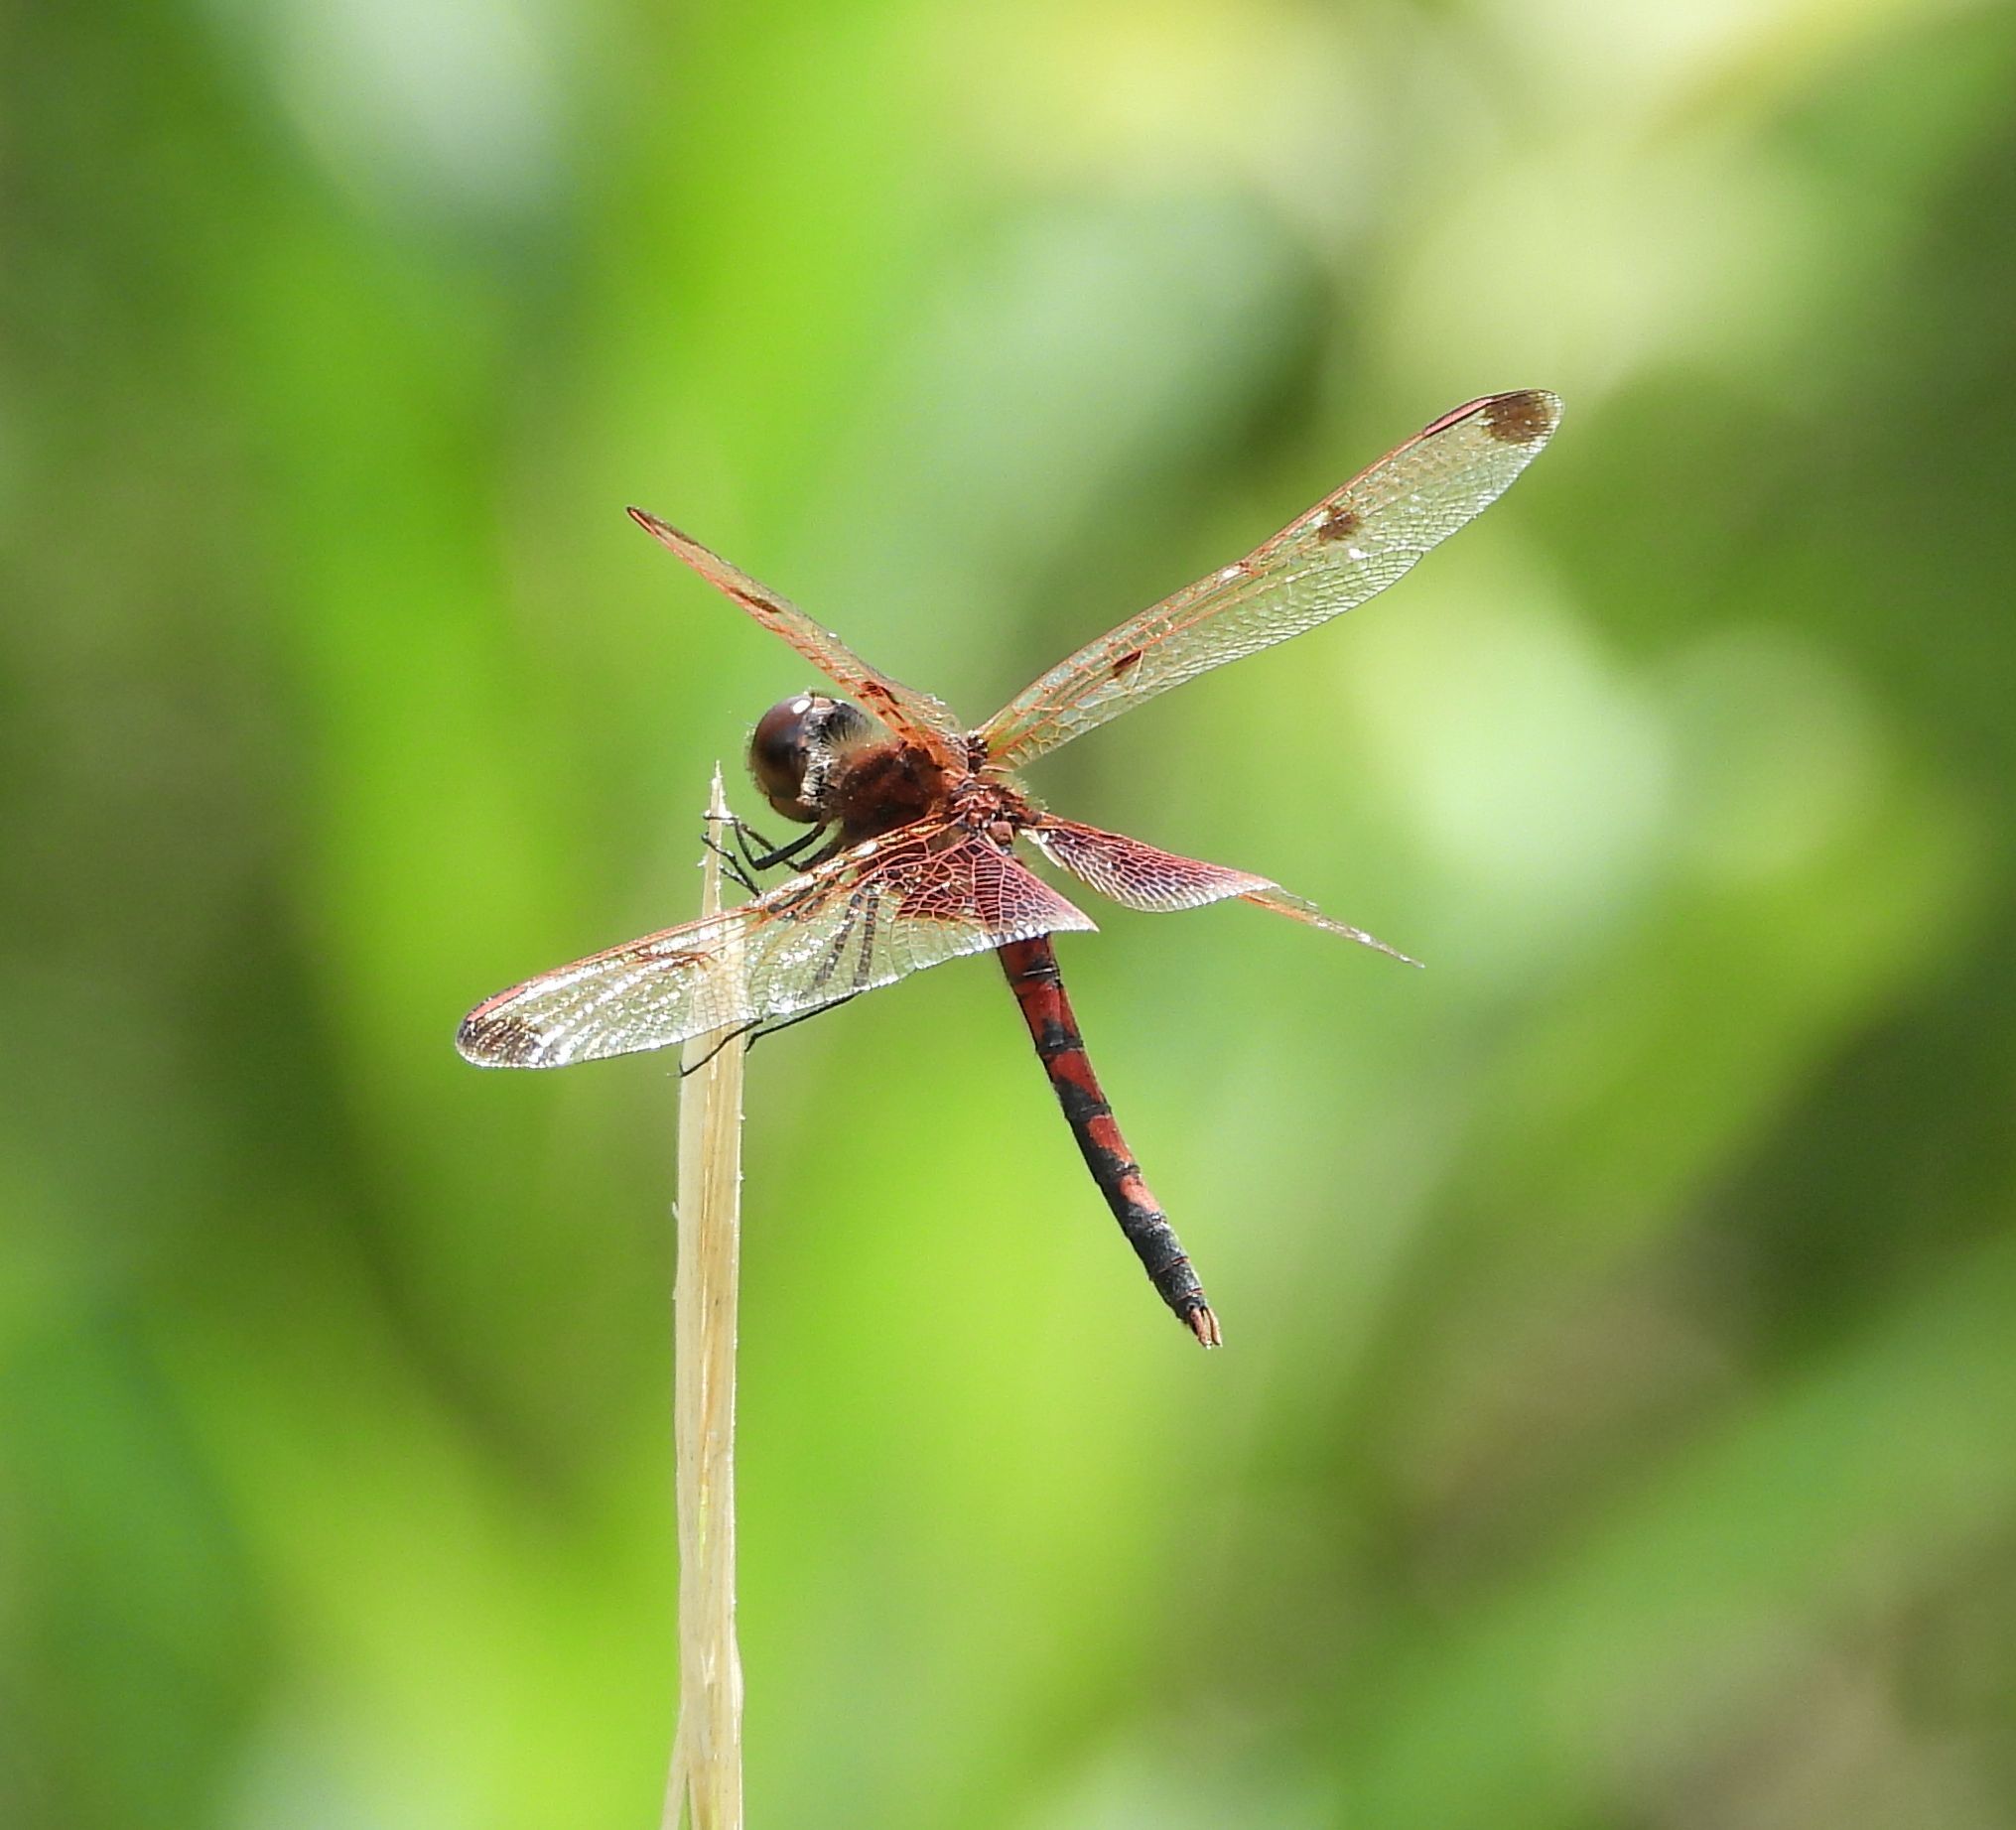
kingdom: Animalia
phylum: Arthropoda
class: Insecta
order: Odonata
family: Libellulidae
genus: Celithemis
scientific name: Celithemis elisa
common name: Calico pennant
